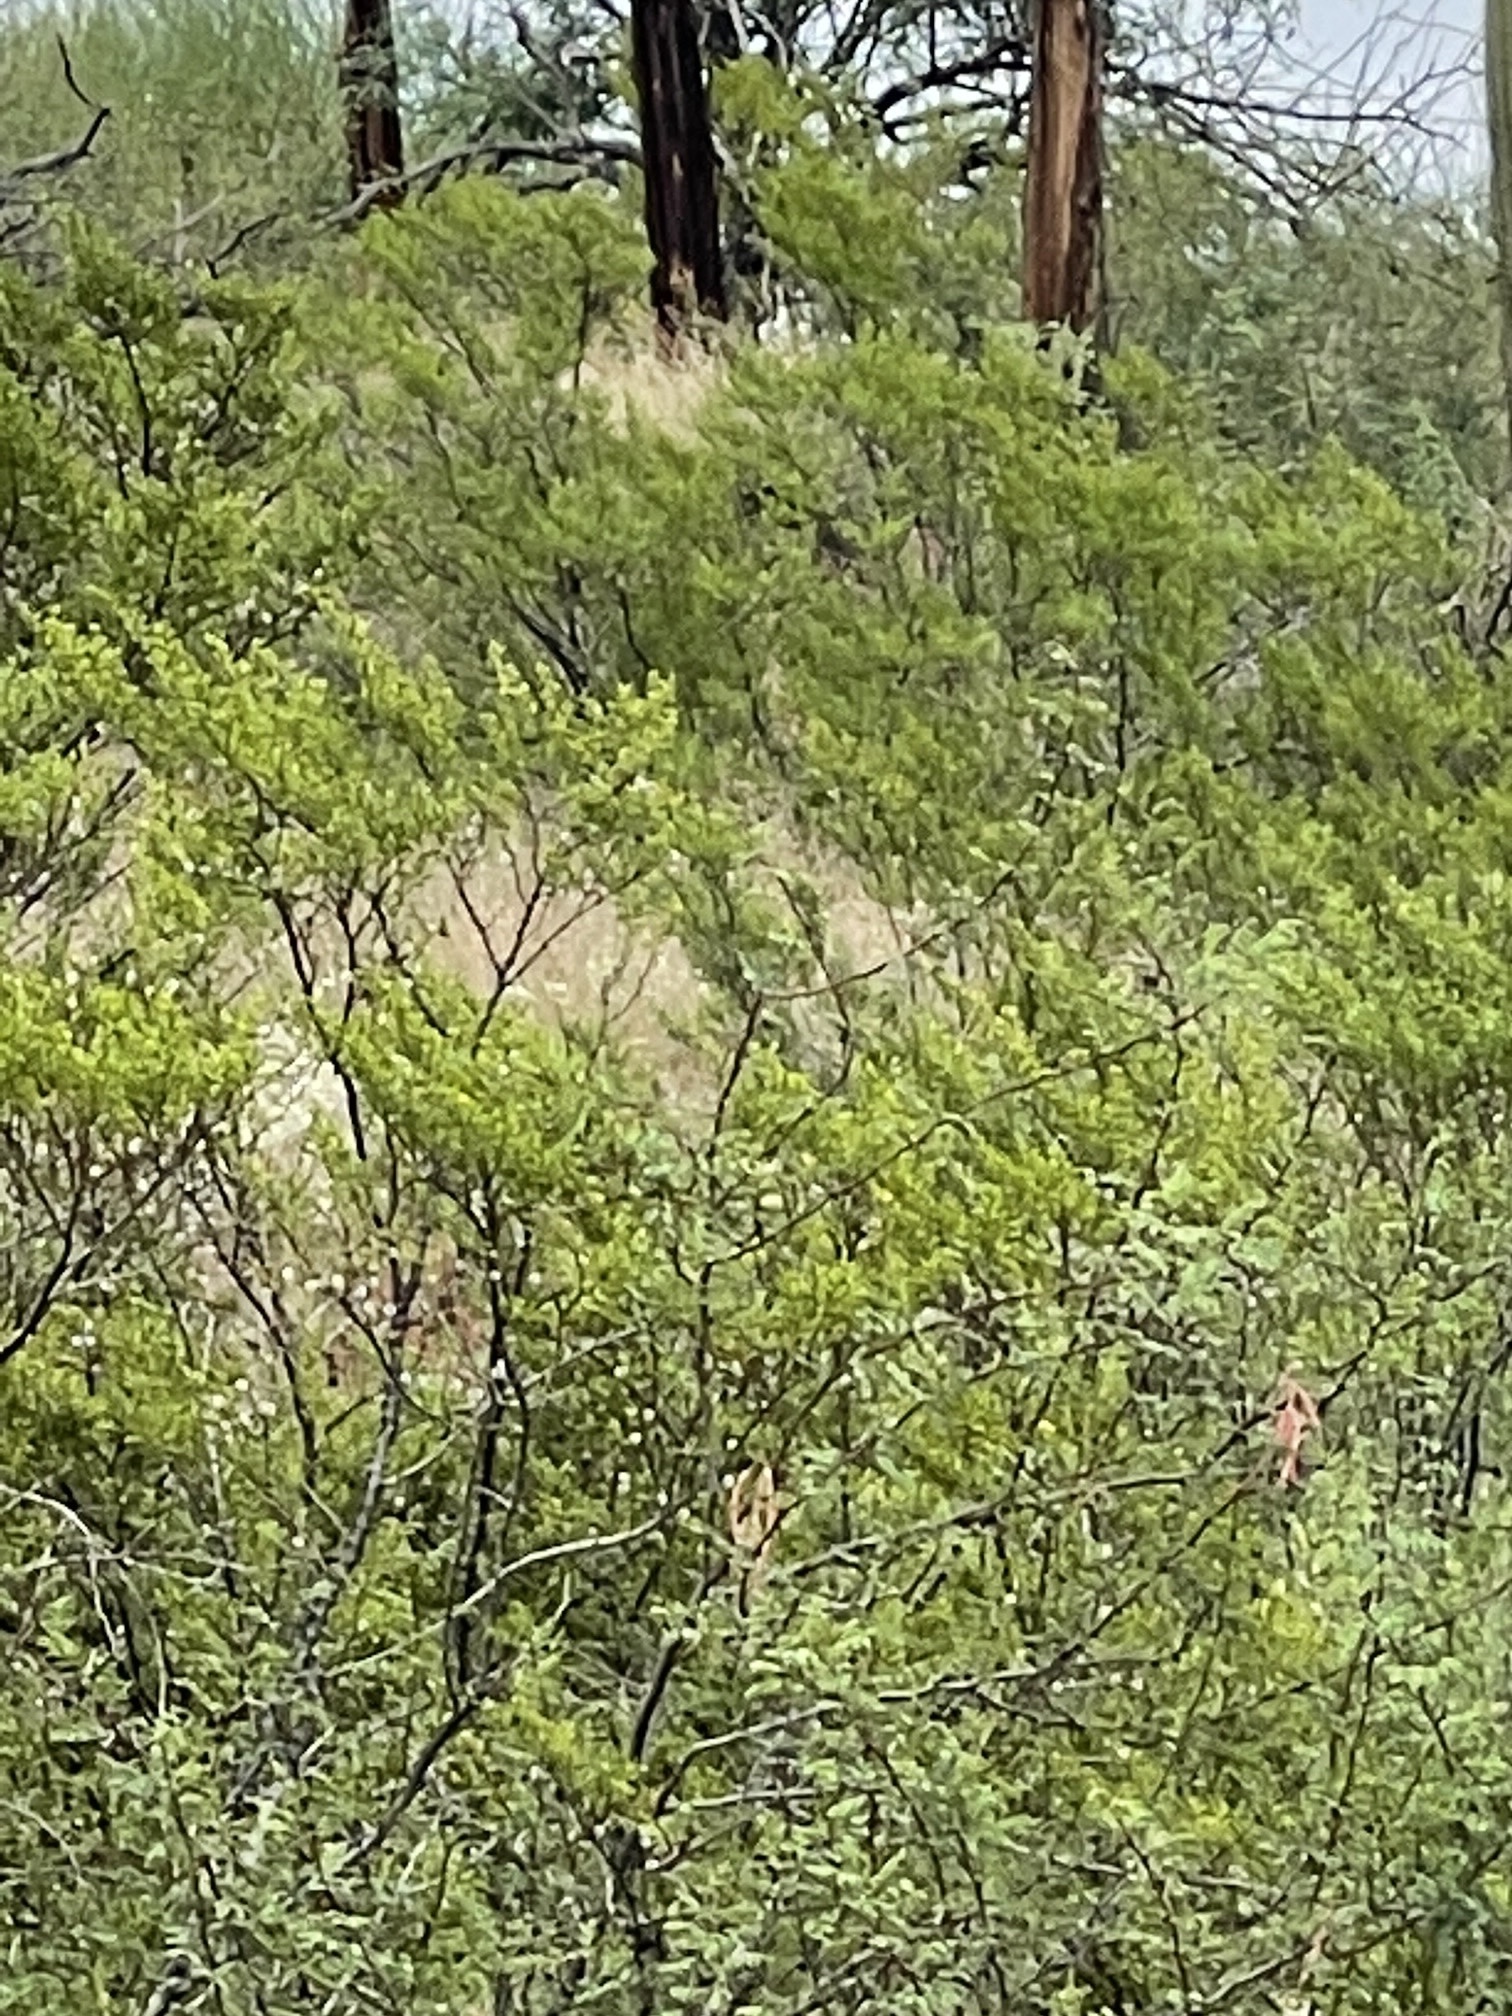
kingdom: Plantae
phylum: Tracheophyta
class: Magnoliopsida
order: Zygophyllales
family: Zygophyllaceae
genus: Larrea
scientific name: Larrea tridentata
